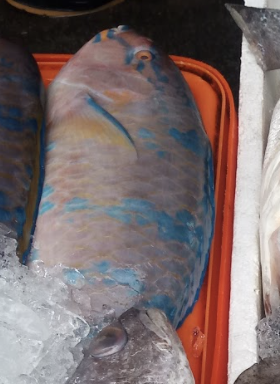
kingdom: Animalia
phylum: Chordata
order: Perciformes
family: Scaridae
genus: Scarus
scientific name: Scarus ghobban
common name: Blue-barred parrotfish
